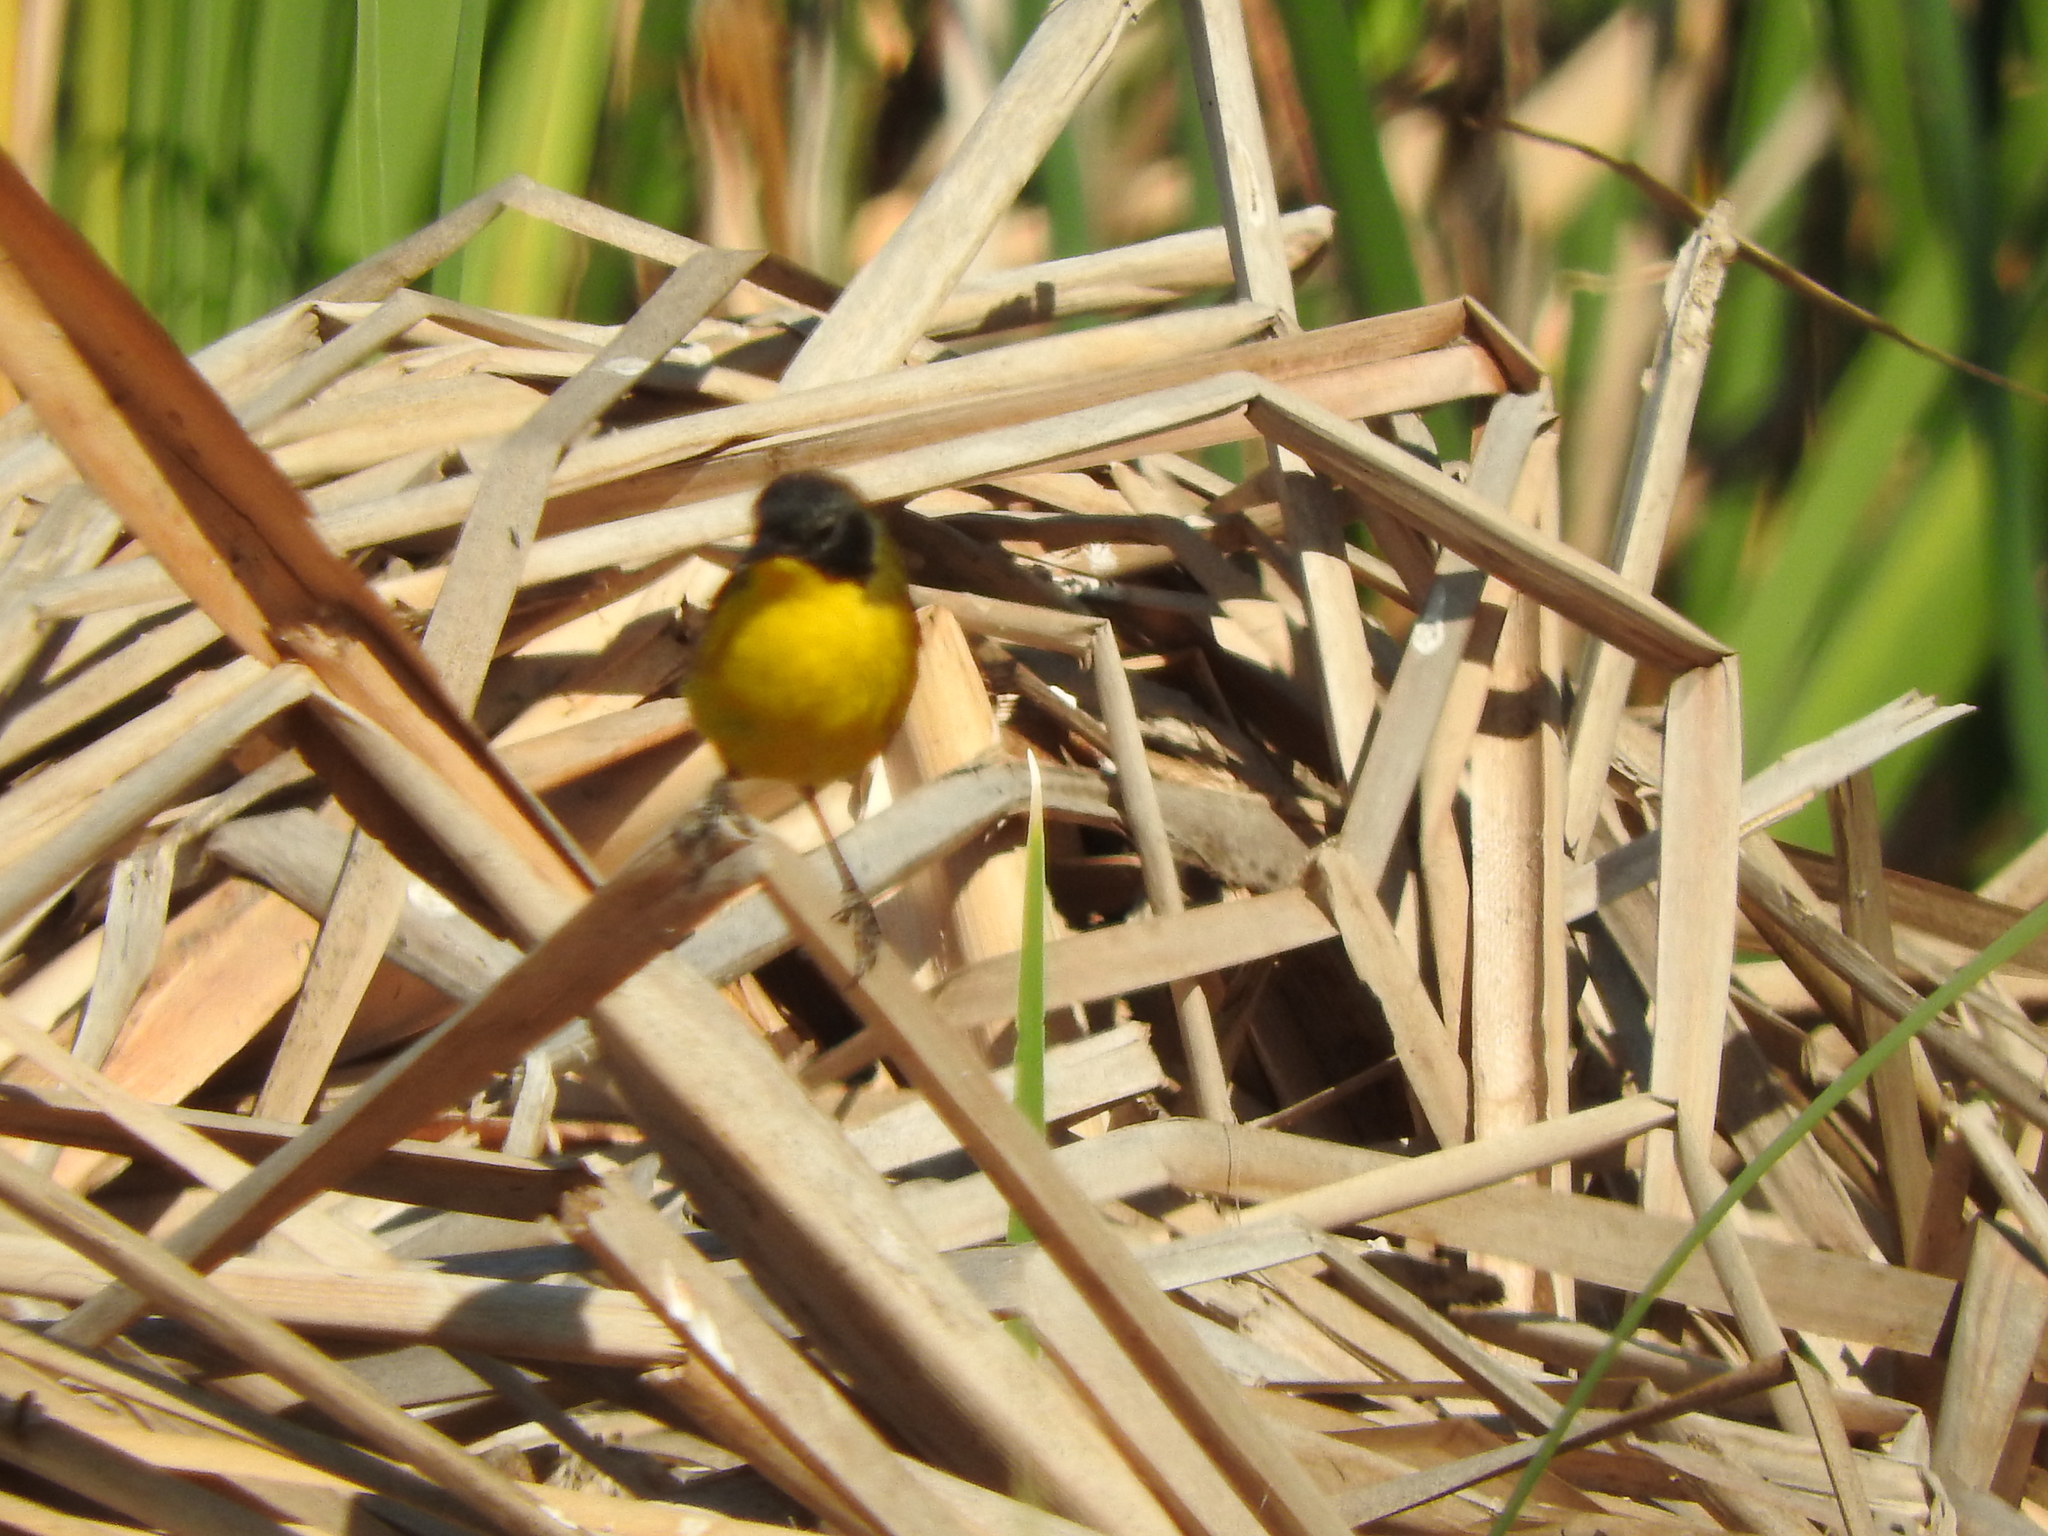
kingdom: Animalia
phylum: Chordata
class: Aves
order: Passeriformes
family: Parulidae
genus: Geothlypis
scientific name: Geothlypis speciosa
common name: Black-polled yellowthroat
